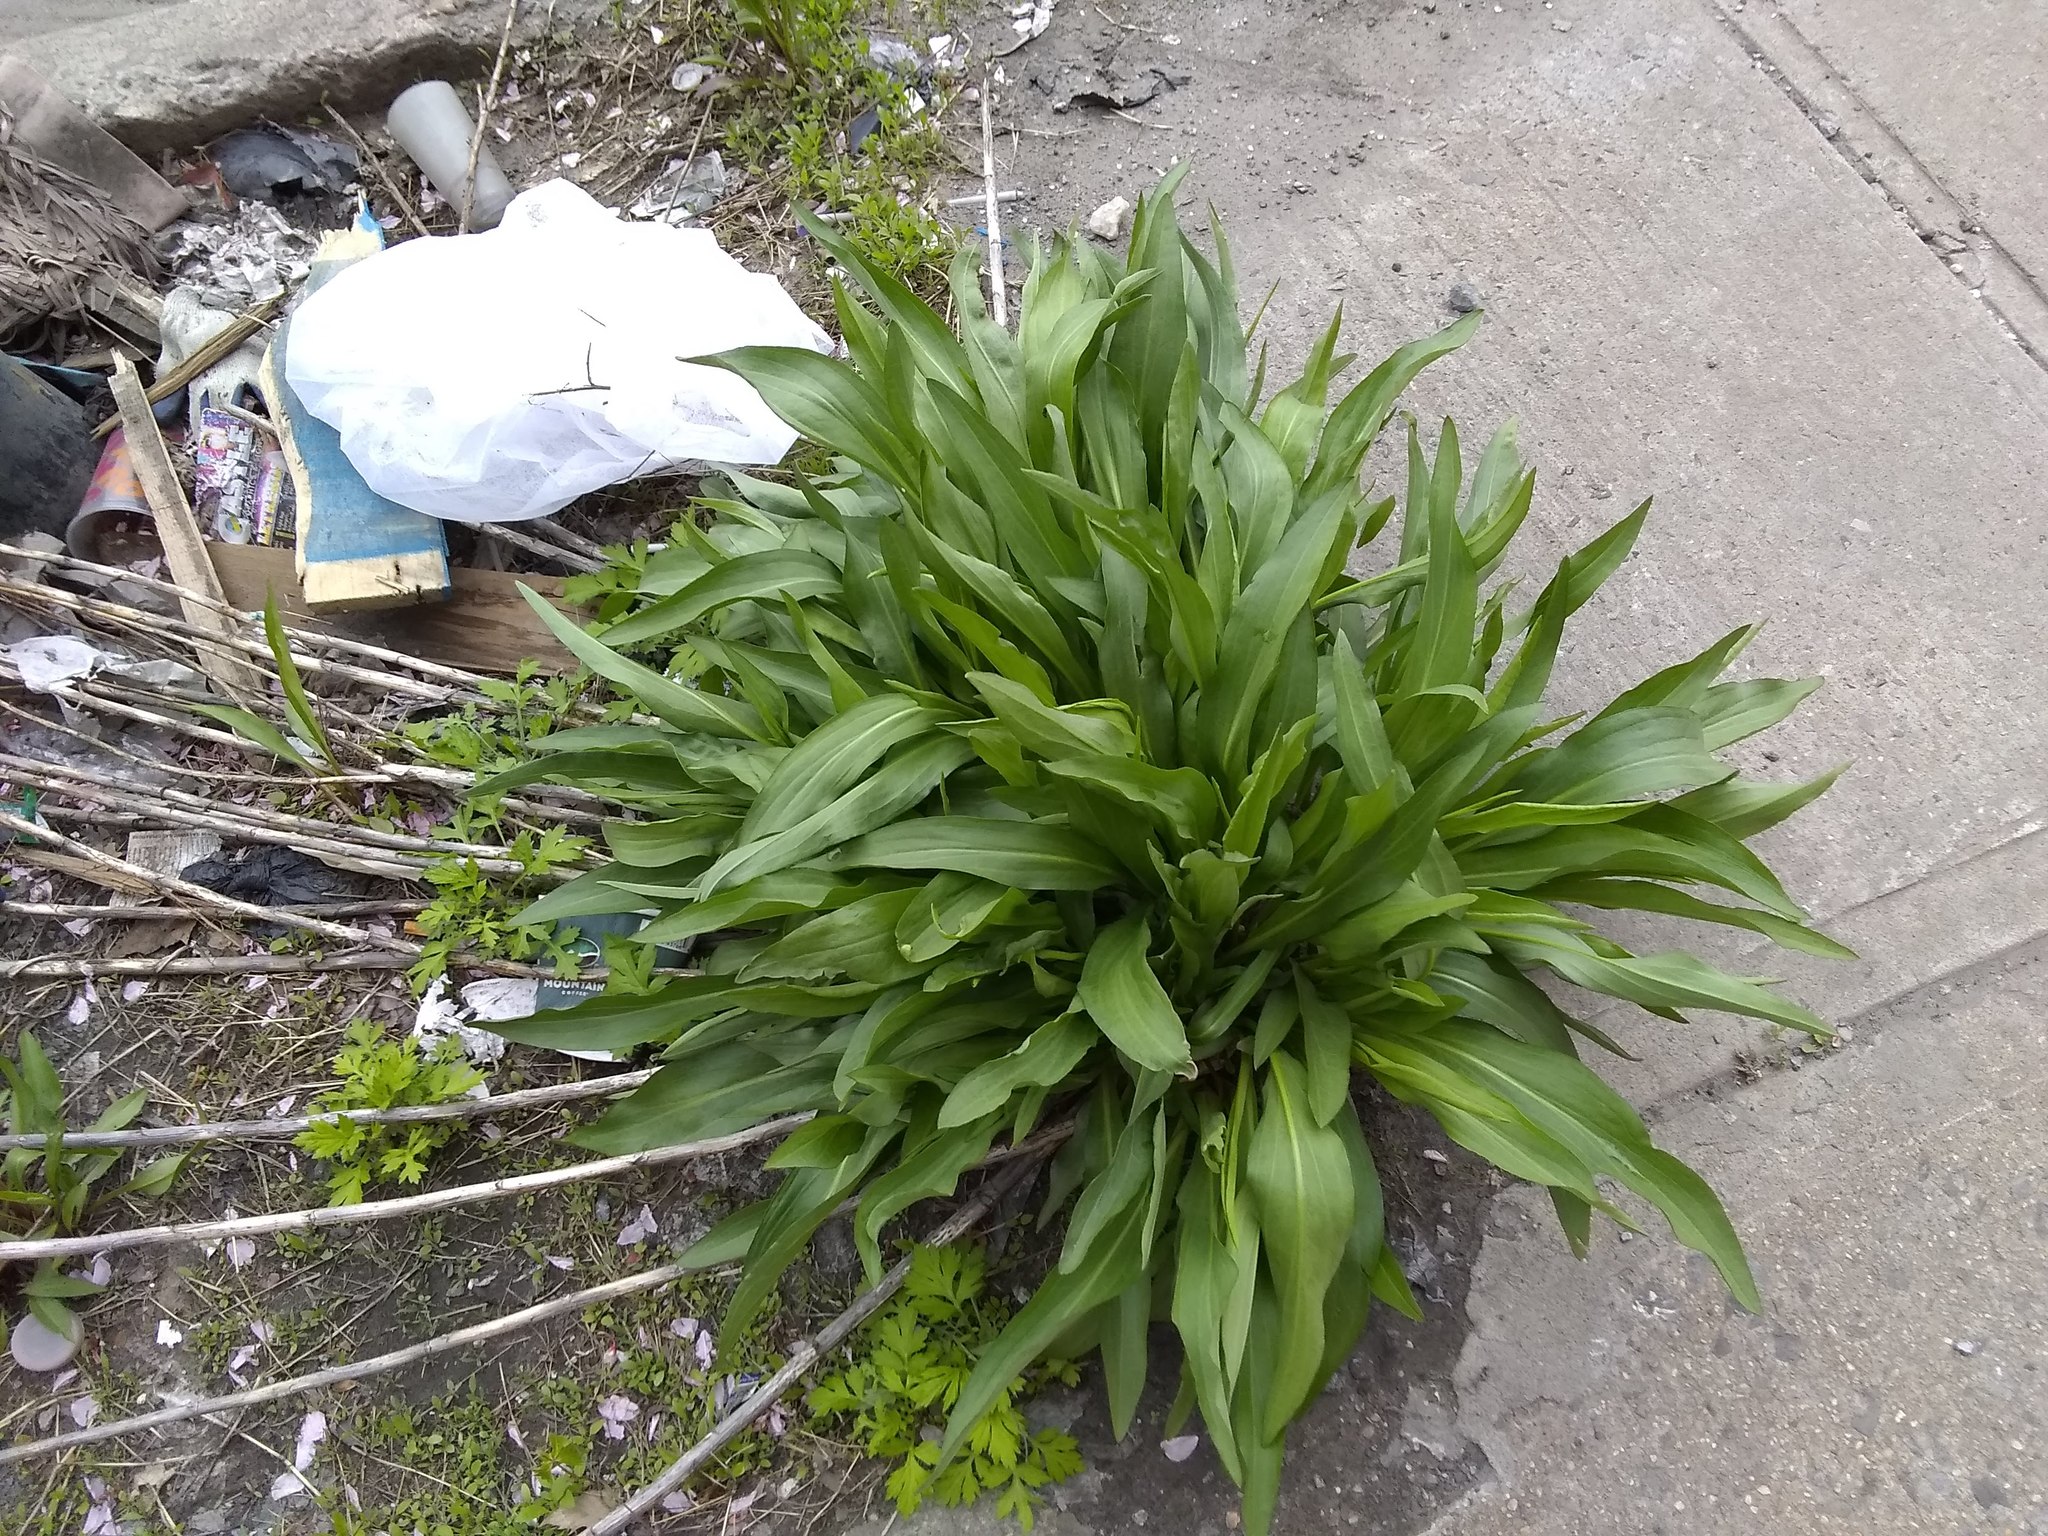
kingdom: Plantae
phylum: Tracheophyta
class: Magnoliopsida
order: Asterales
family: Asteraceae
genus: Solidago
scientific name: Solidago sempervirens
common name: Salt-marsh goldenrod
